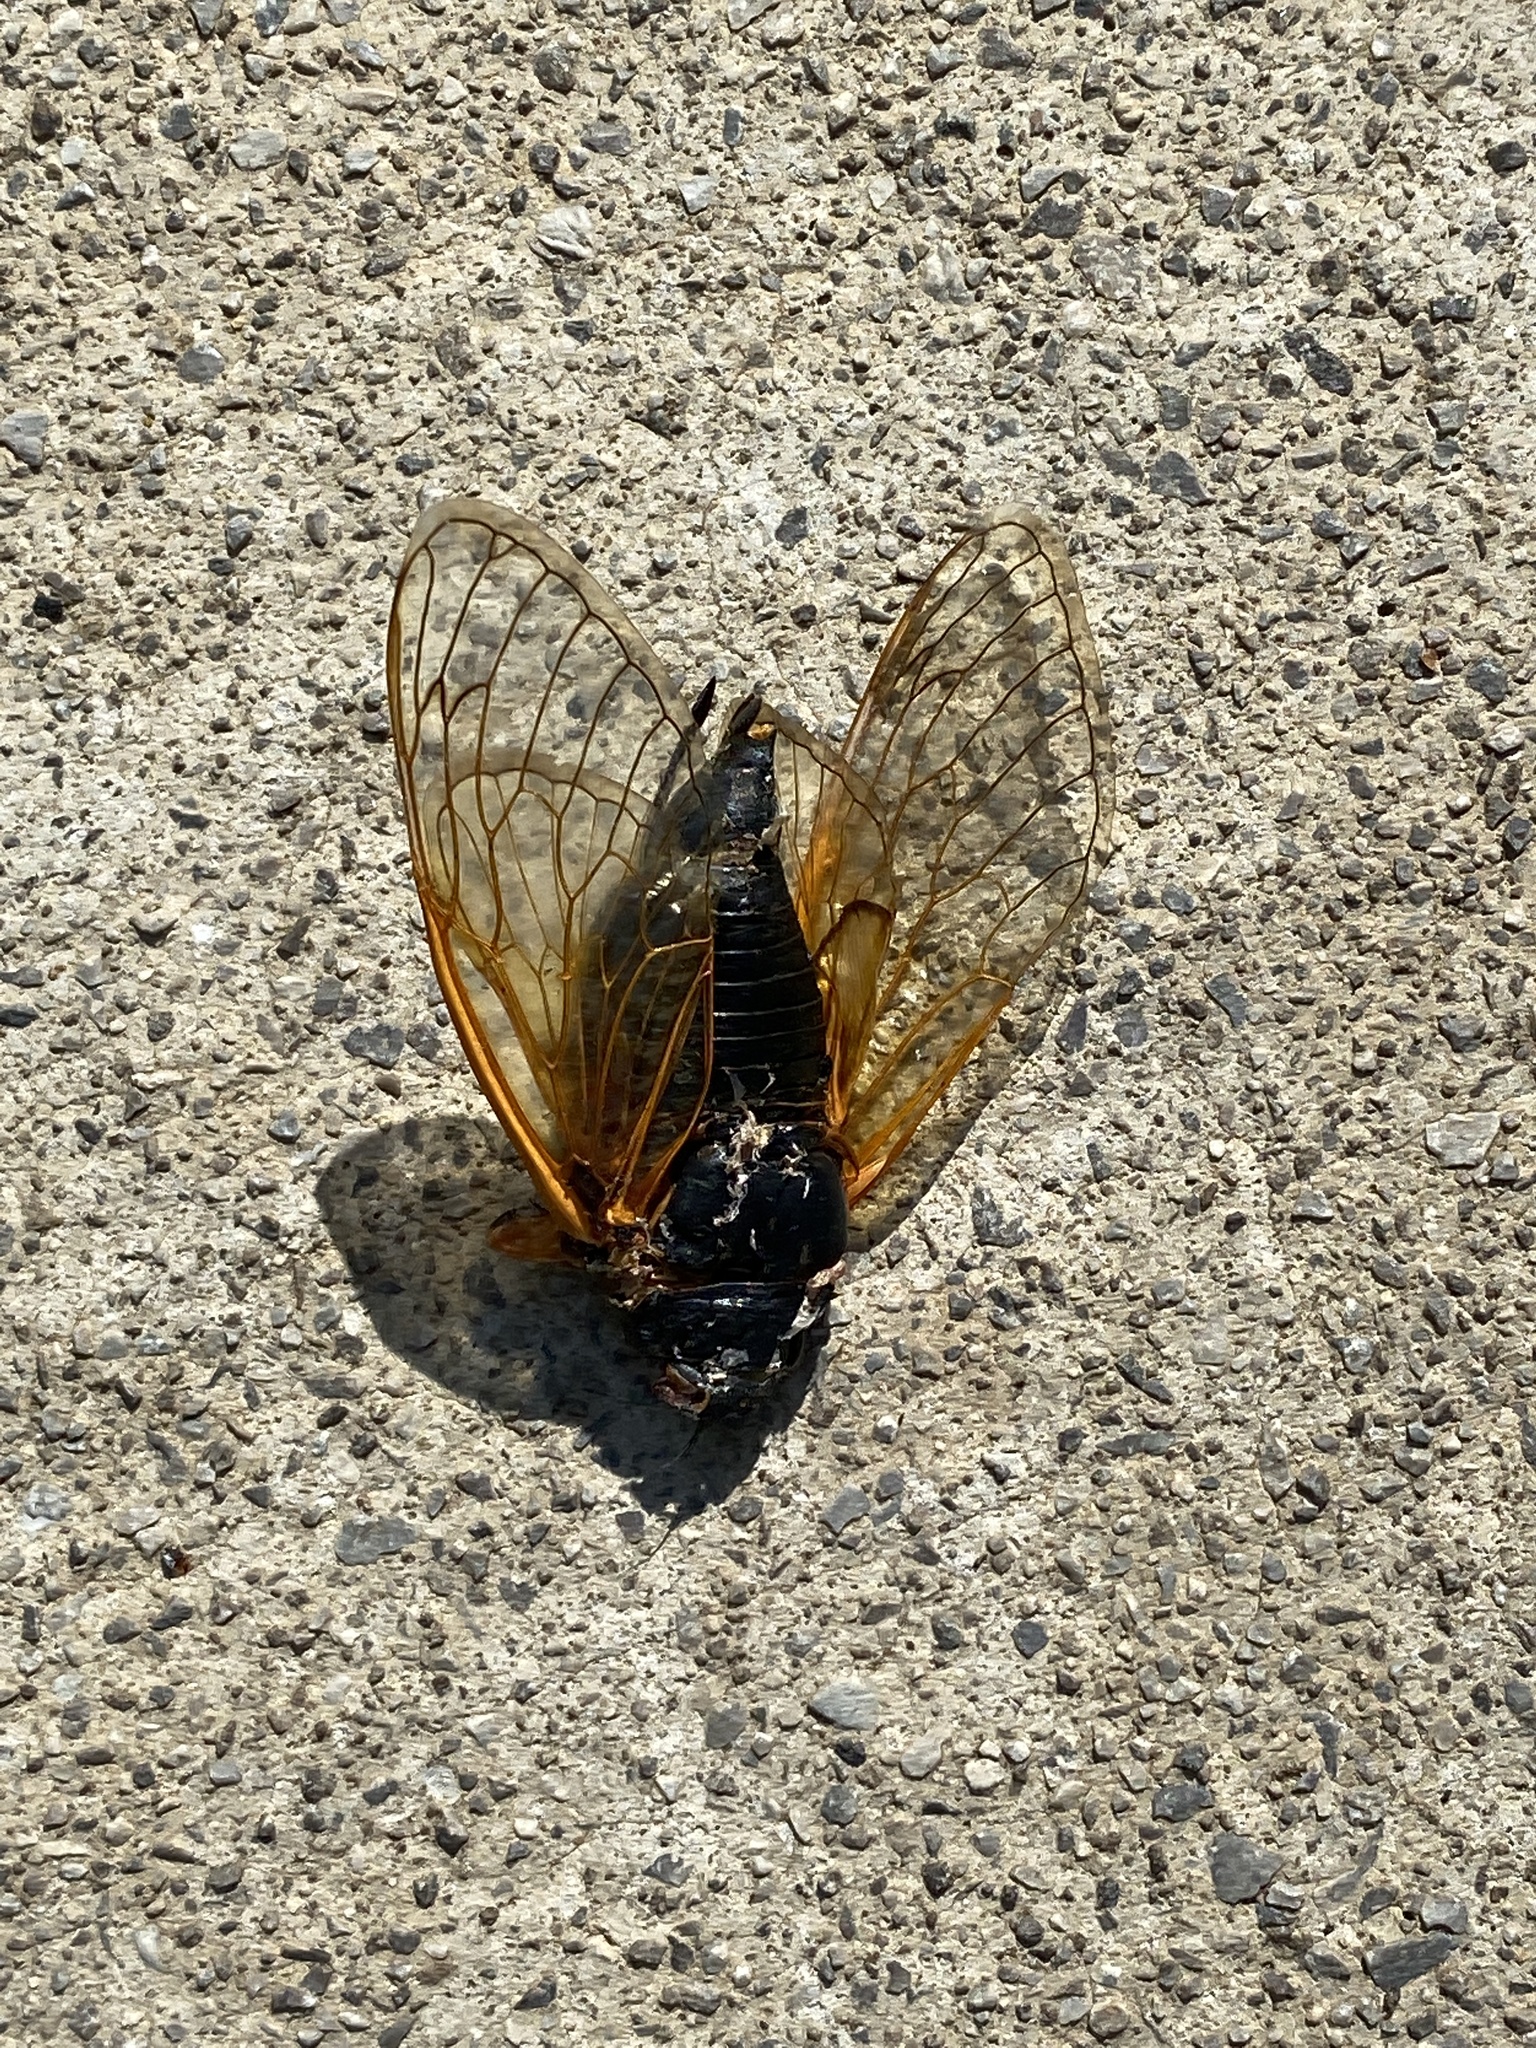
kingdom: Animalia
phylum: Arthropoda
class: Insecta
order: Hemiptera
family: Cicadidae
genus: Magicicada
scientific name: Magicicada
